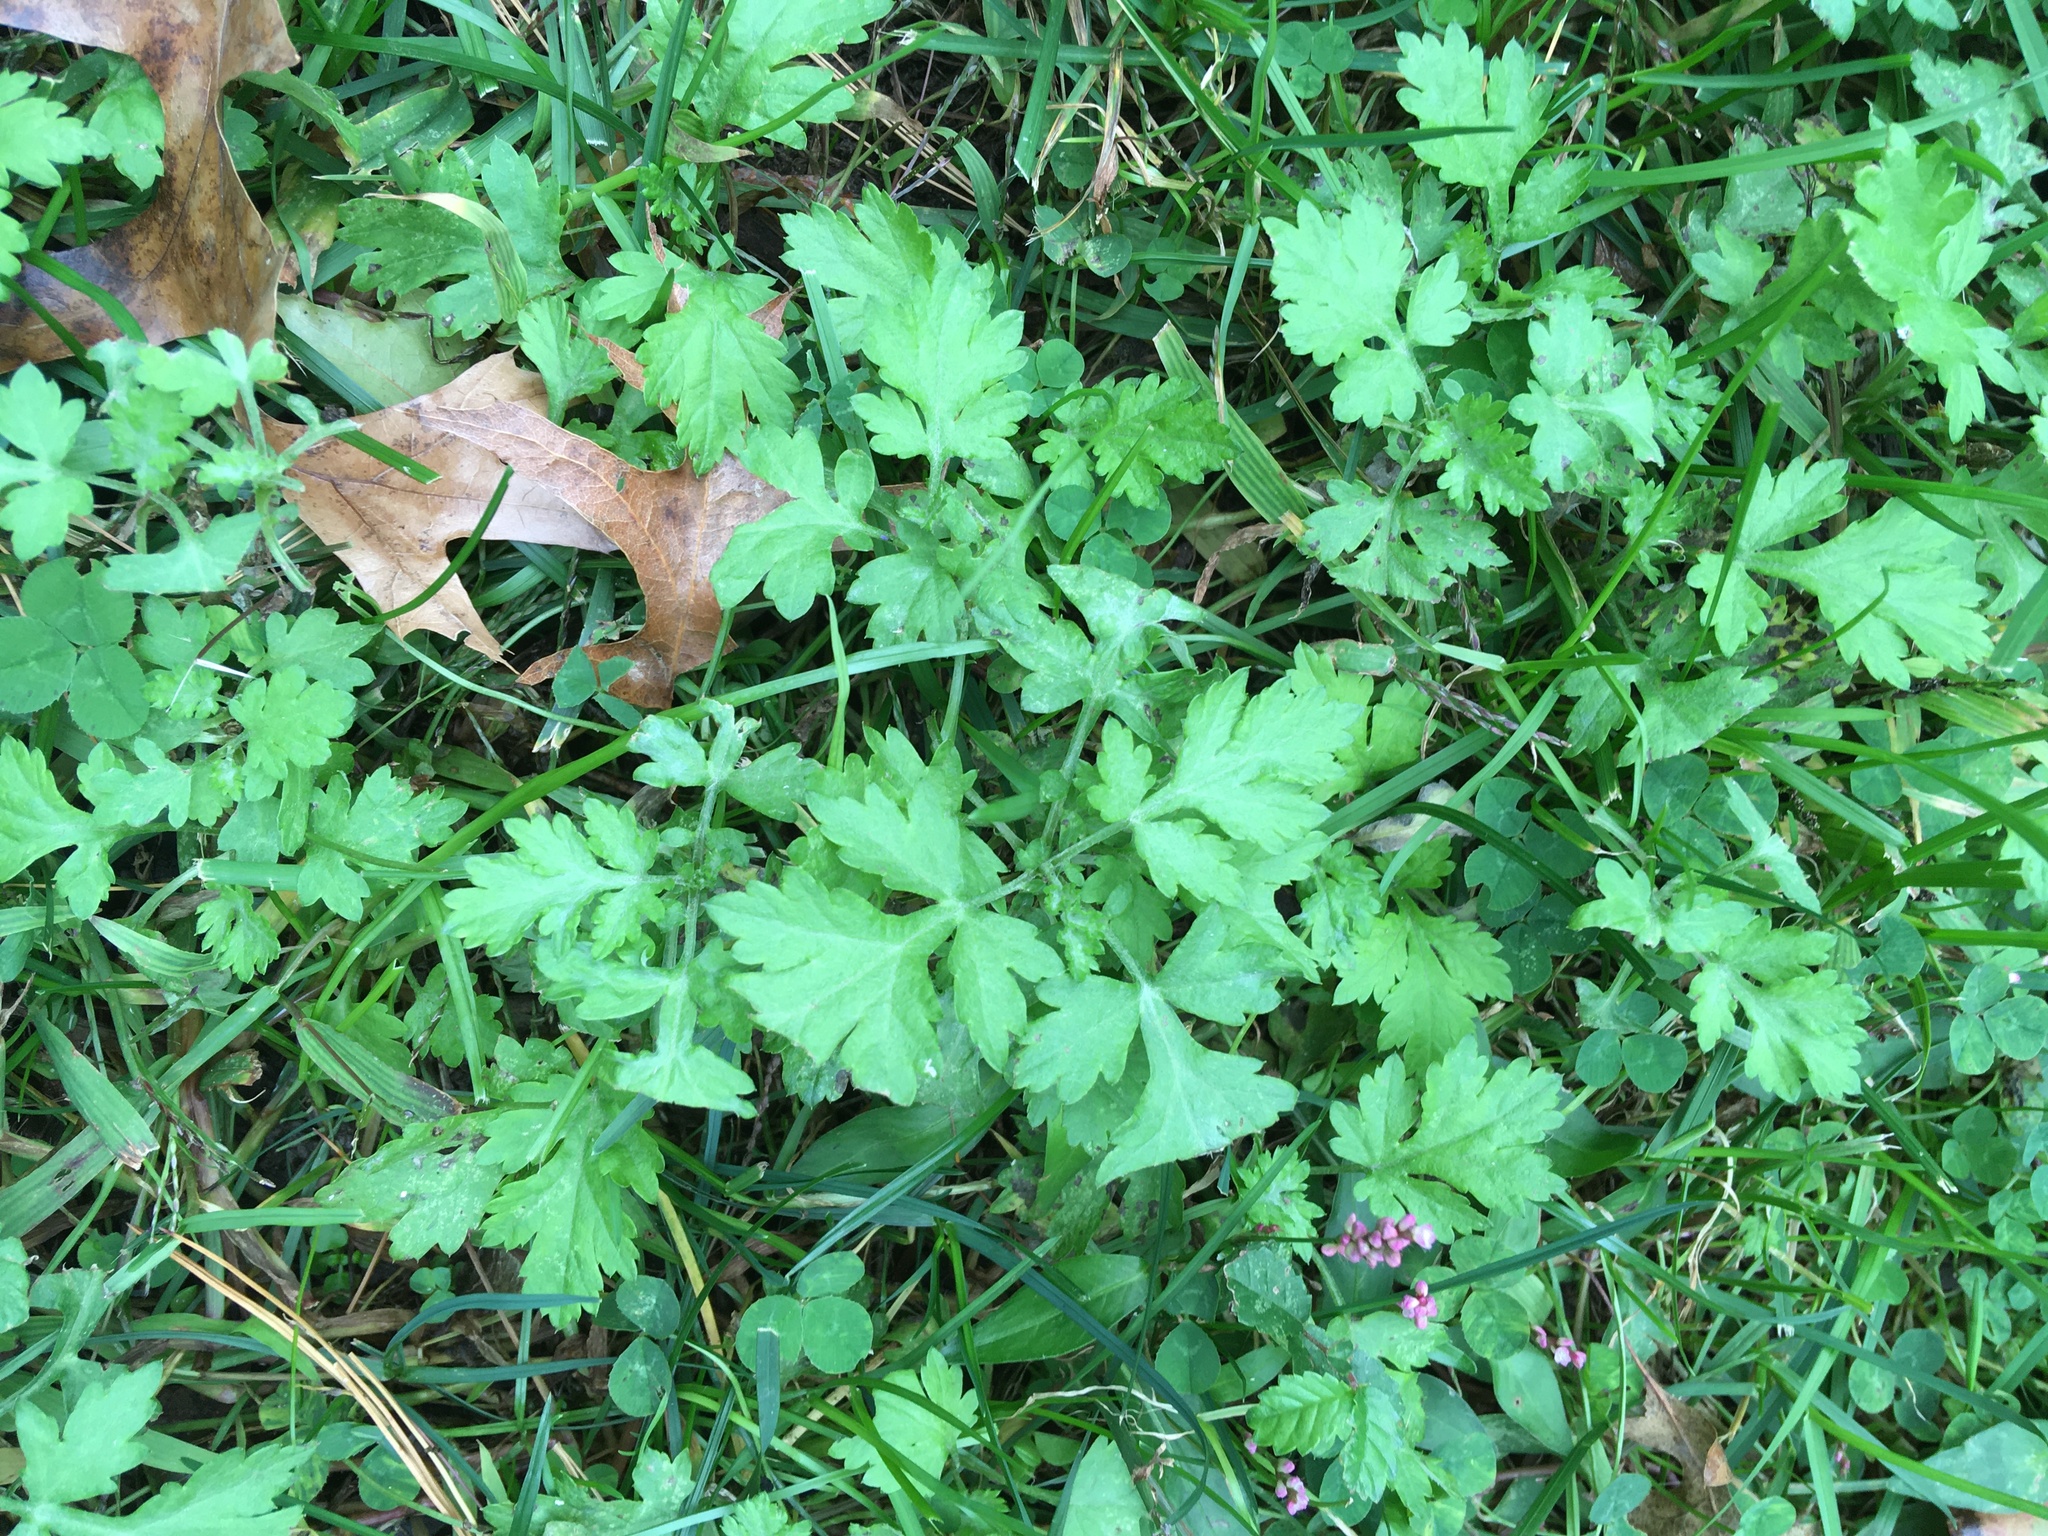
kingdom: Plantae
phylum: Tracheophyta
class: Magnoliopsida
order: Asterales
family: Asteraceae
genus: Artemisia
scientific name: Artemisia vulgaris
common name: Mugwort
